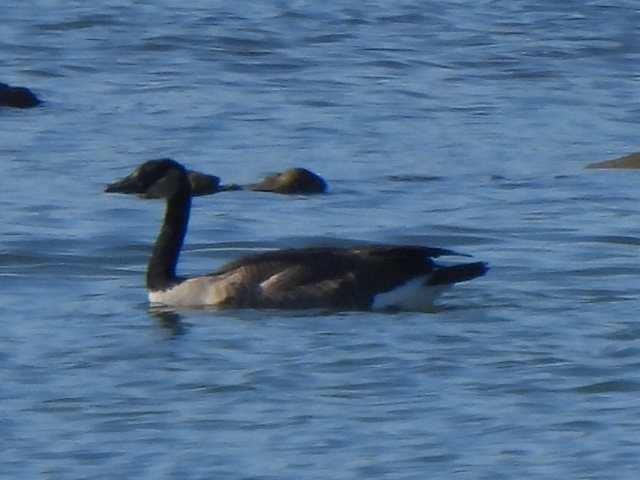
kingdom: Animalia
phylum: Chordata
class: Aves
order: Anseriformes
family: Anatidae
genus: Branta
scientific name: Branta canadensis
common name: Canada goose
